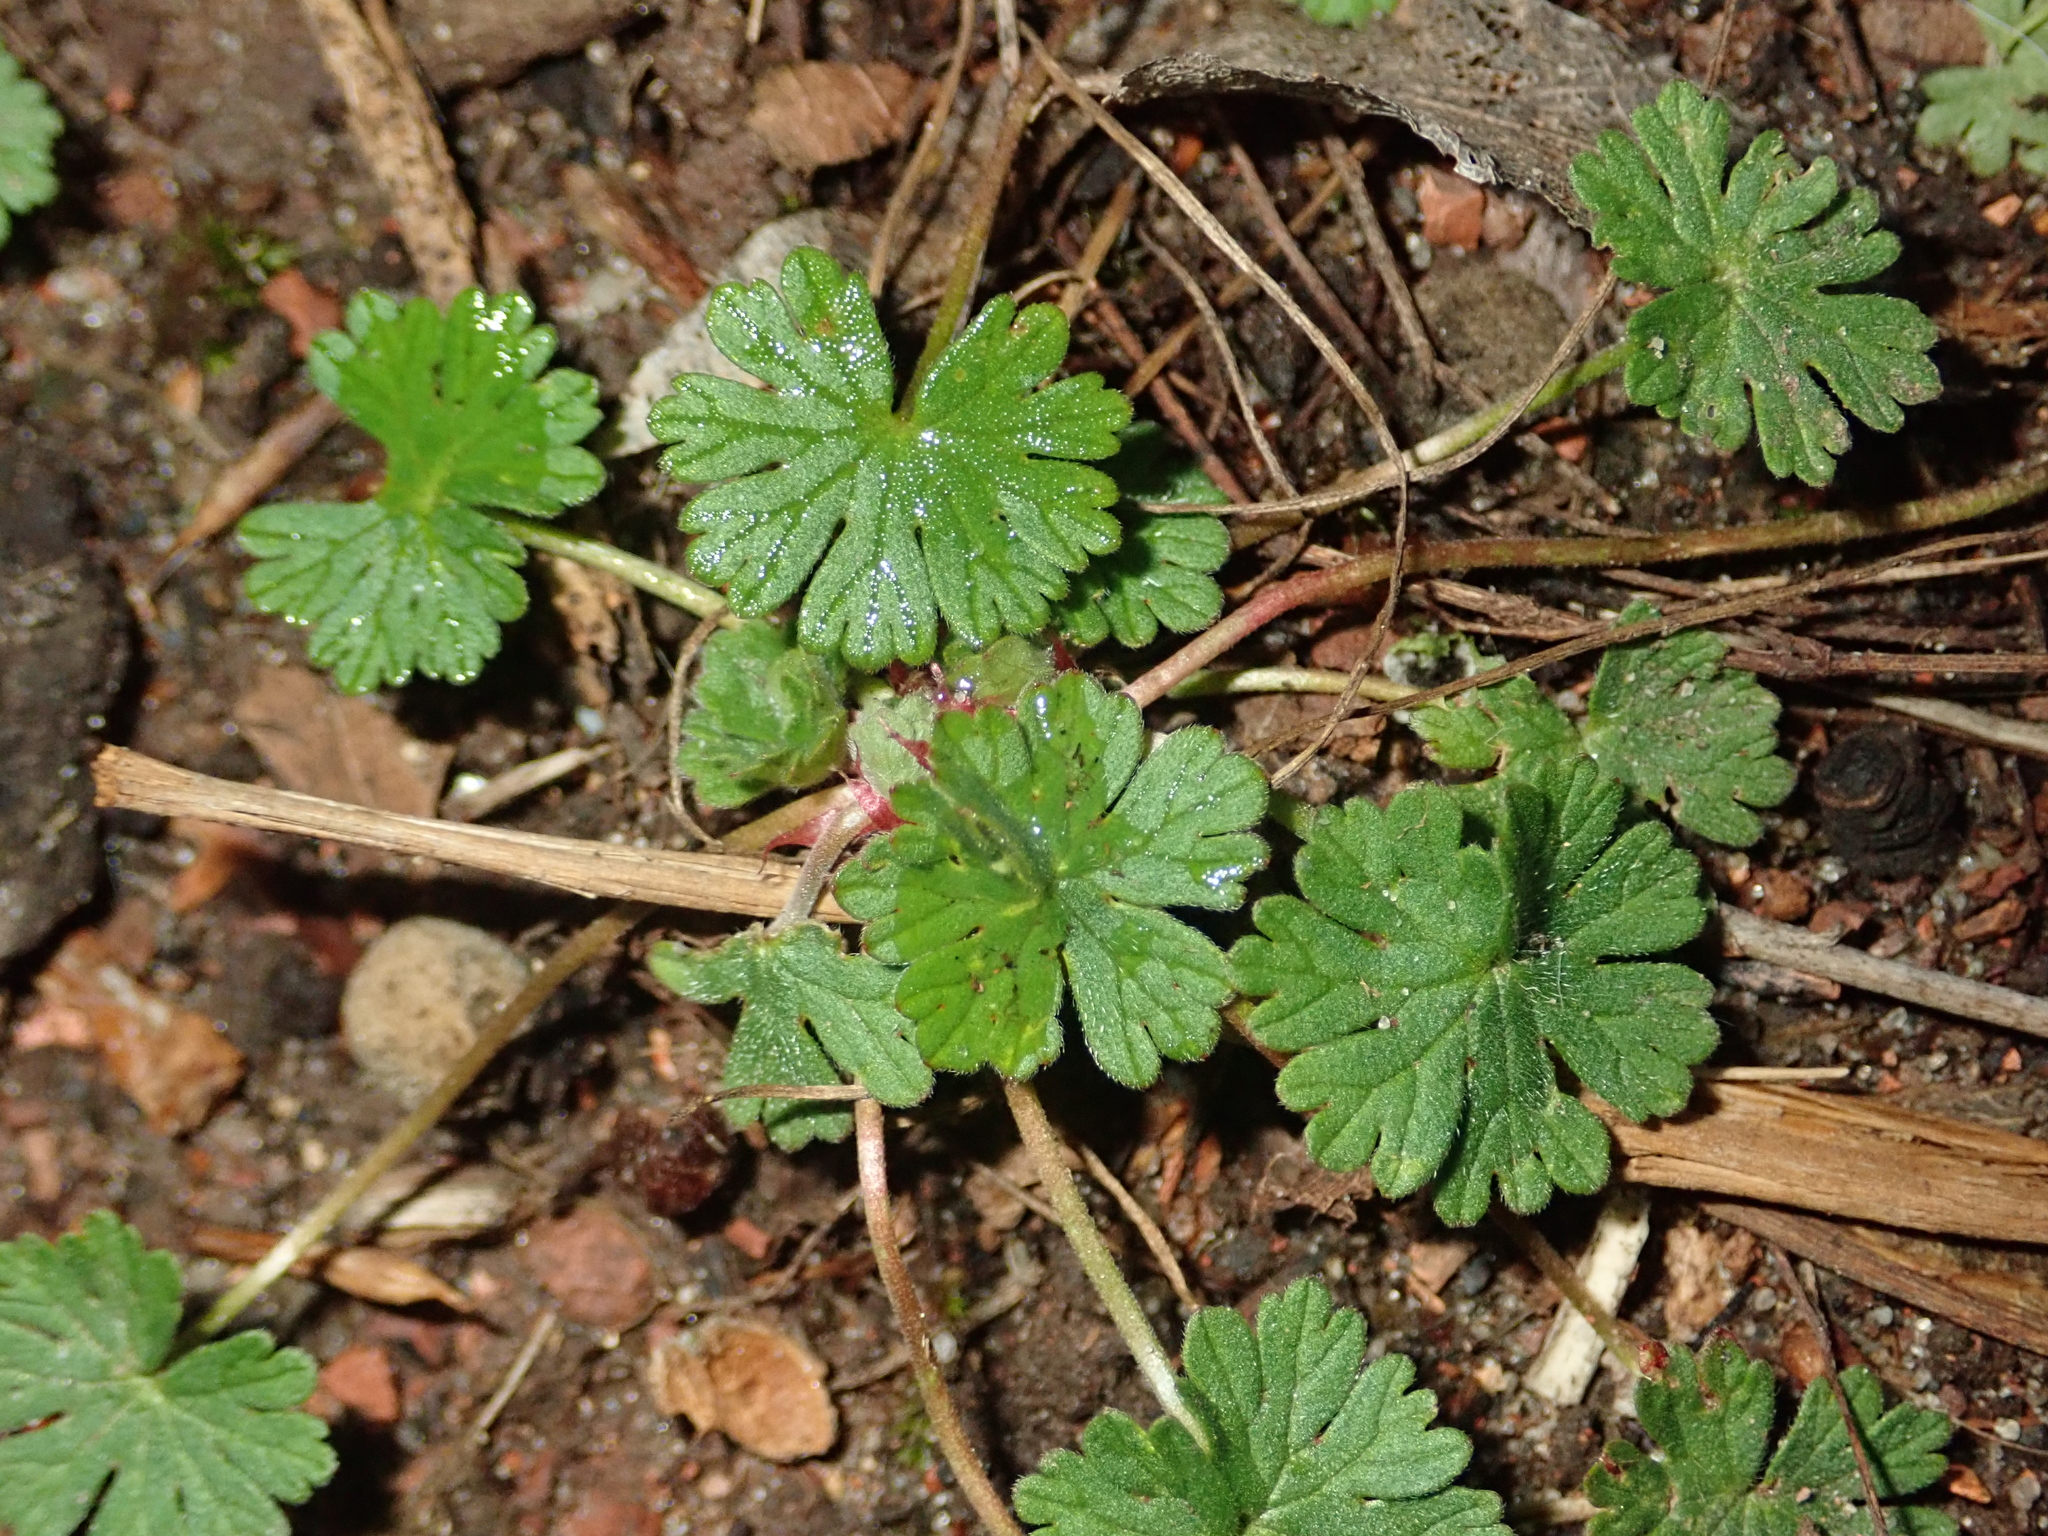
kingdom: Plantae
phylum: Tracheophyta
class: Magnoliopsida
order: Geraniales
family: Geraniaceae
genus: Geranium
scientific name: Geranium molle
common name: Dove's-foot crane's-bill
